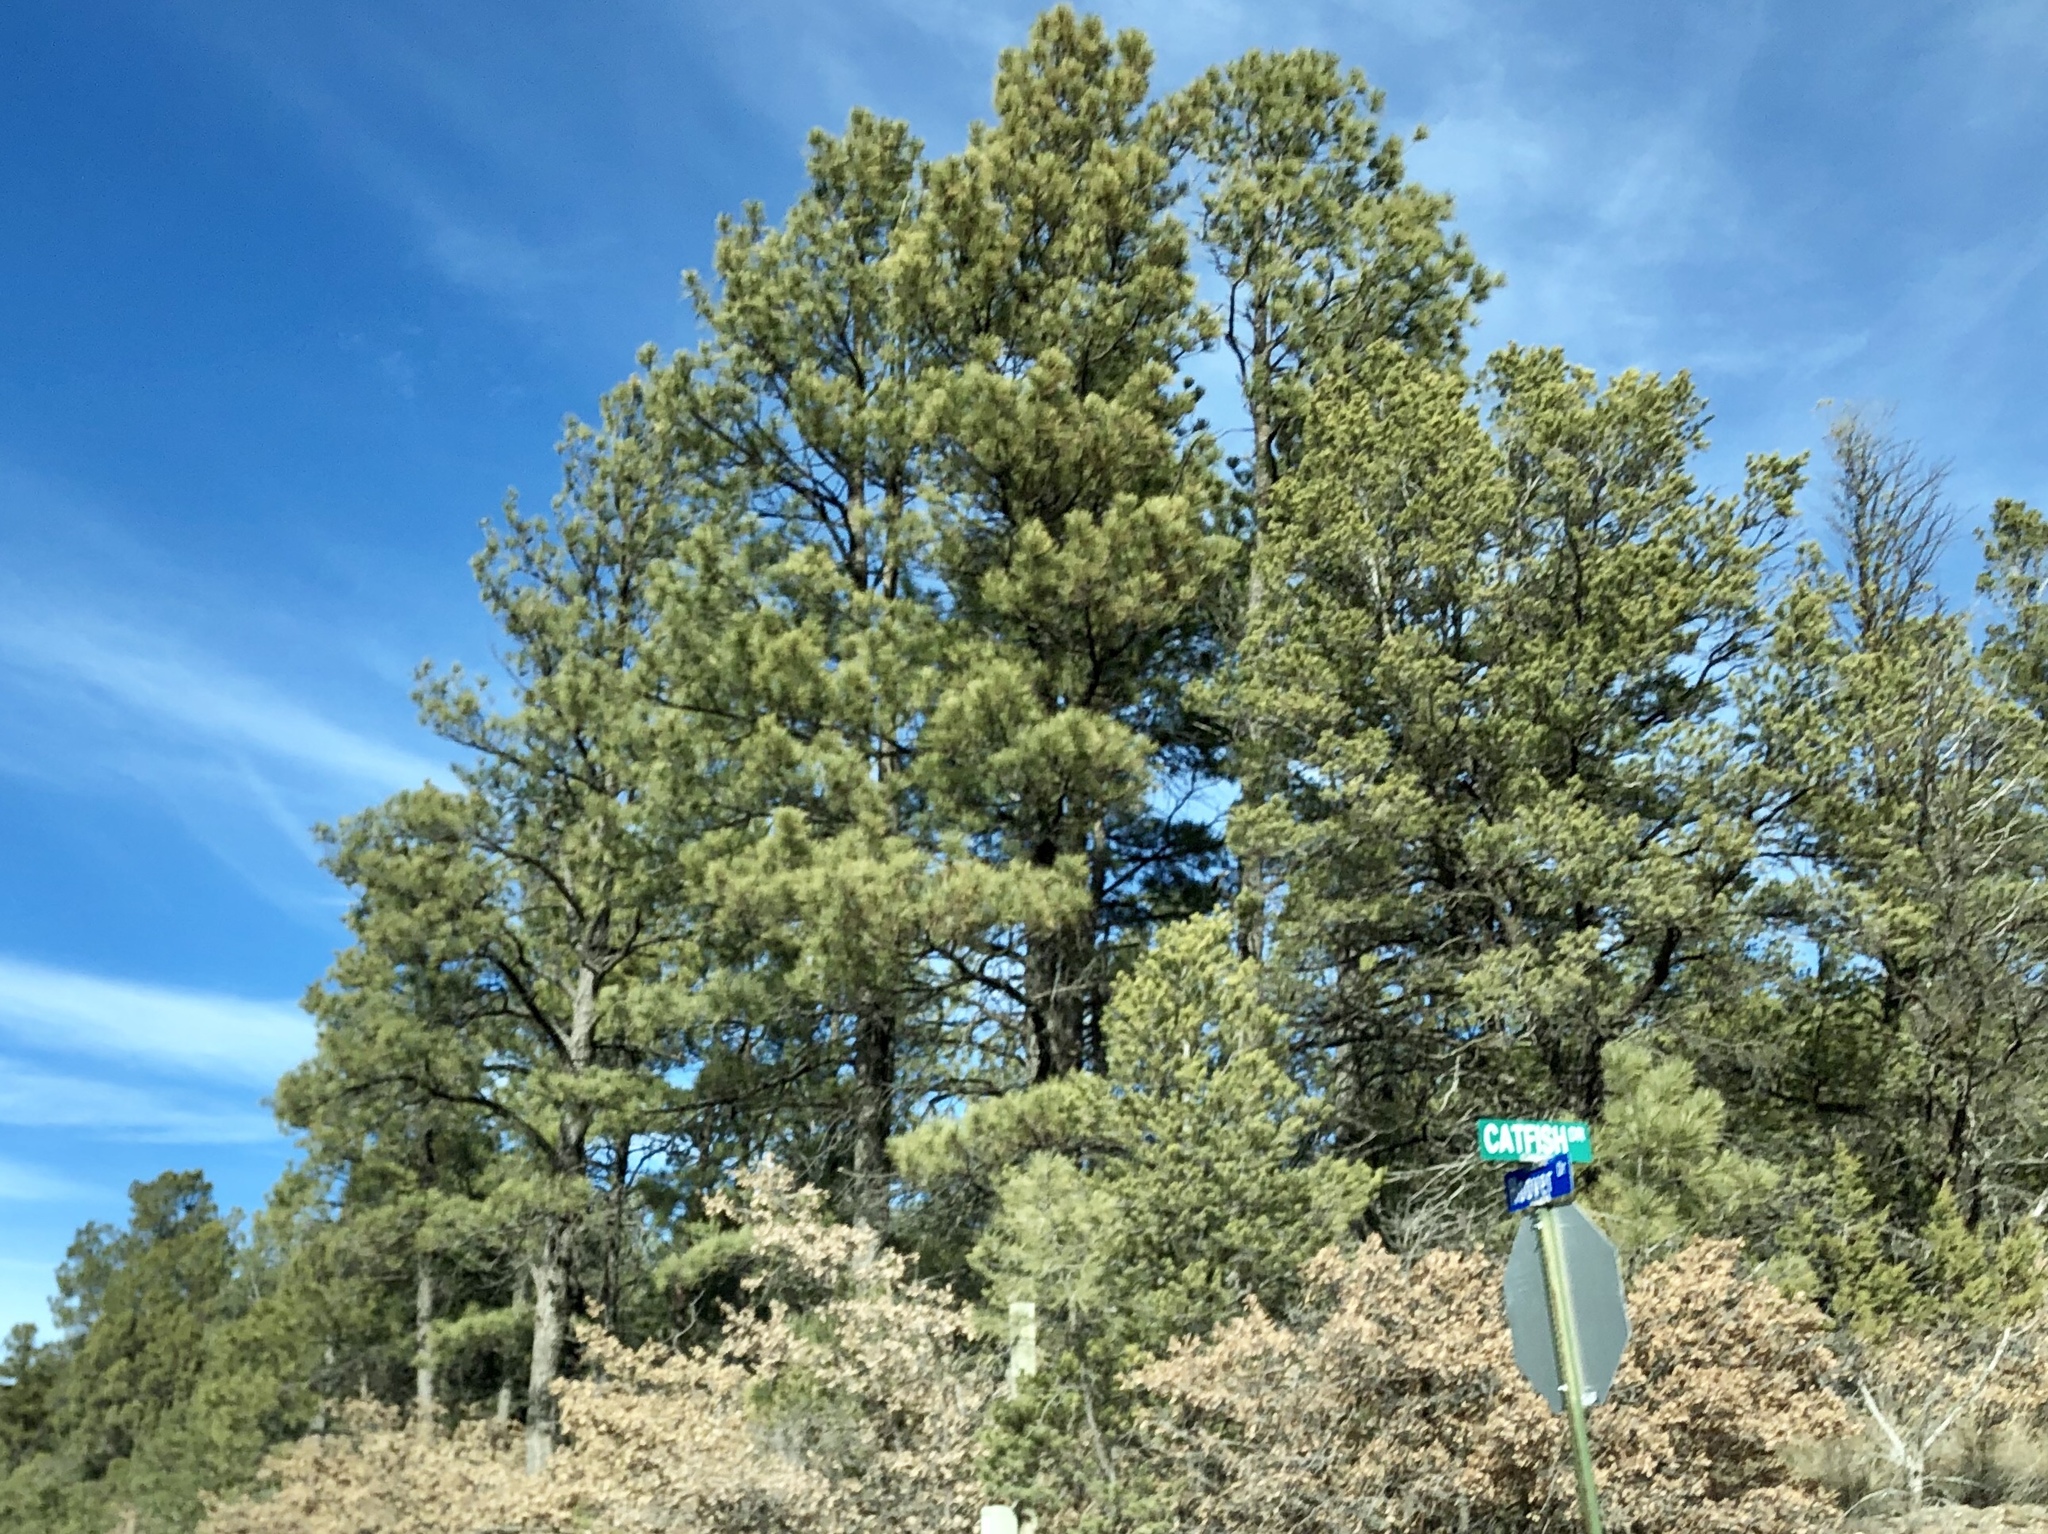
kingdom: Plantae
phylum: Tracheophyta
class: Pinopsida
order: Pinales
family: Pinaceae
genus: Pinus
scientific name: Pinus ponderosa
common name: Western yellow-pine
